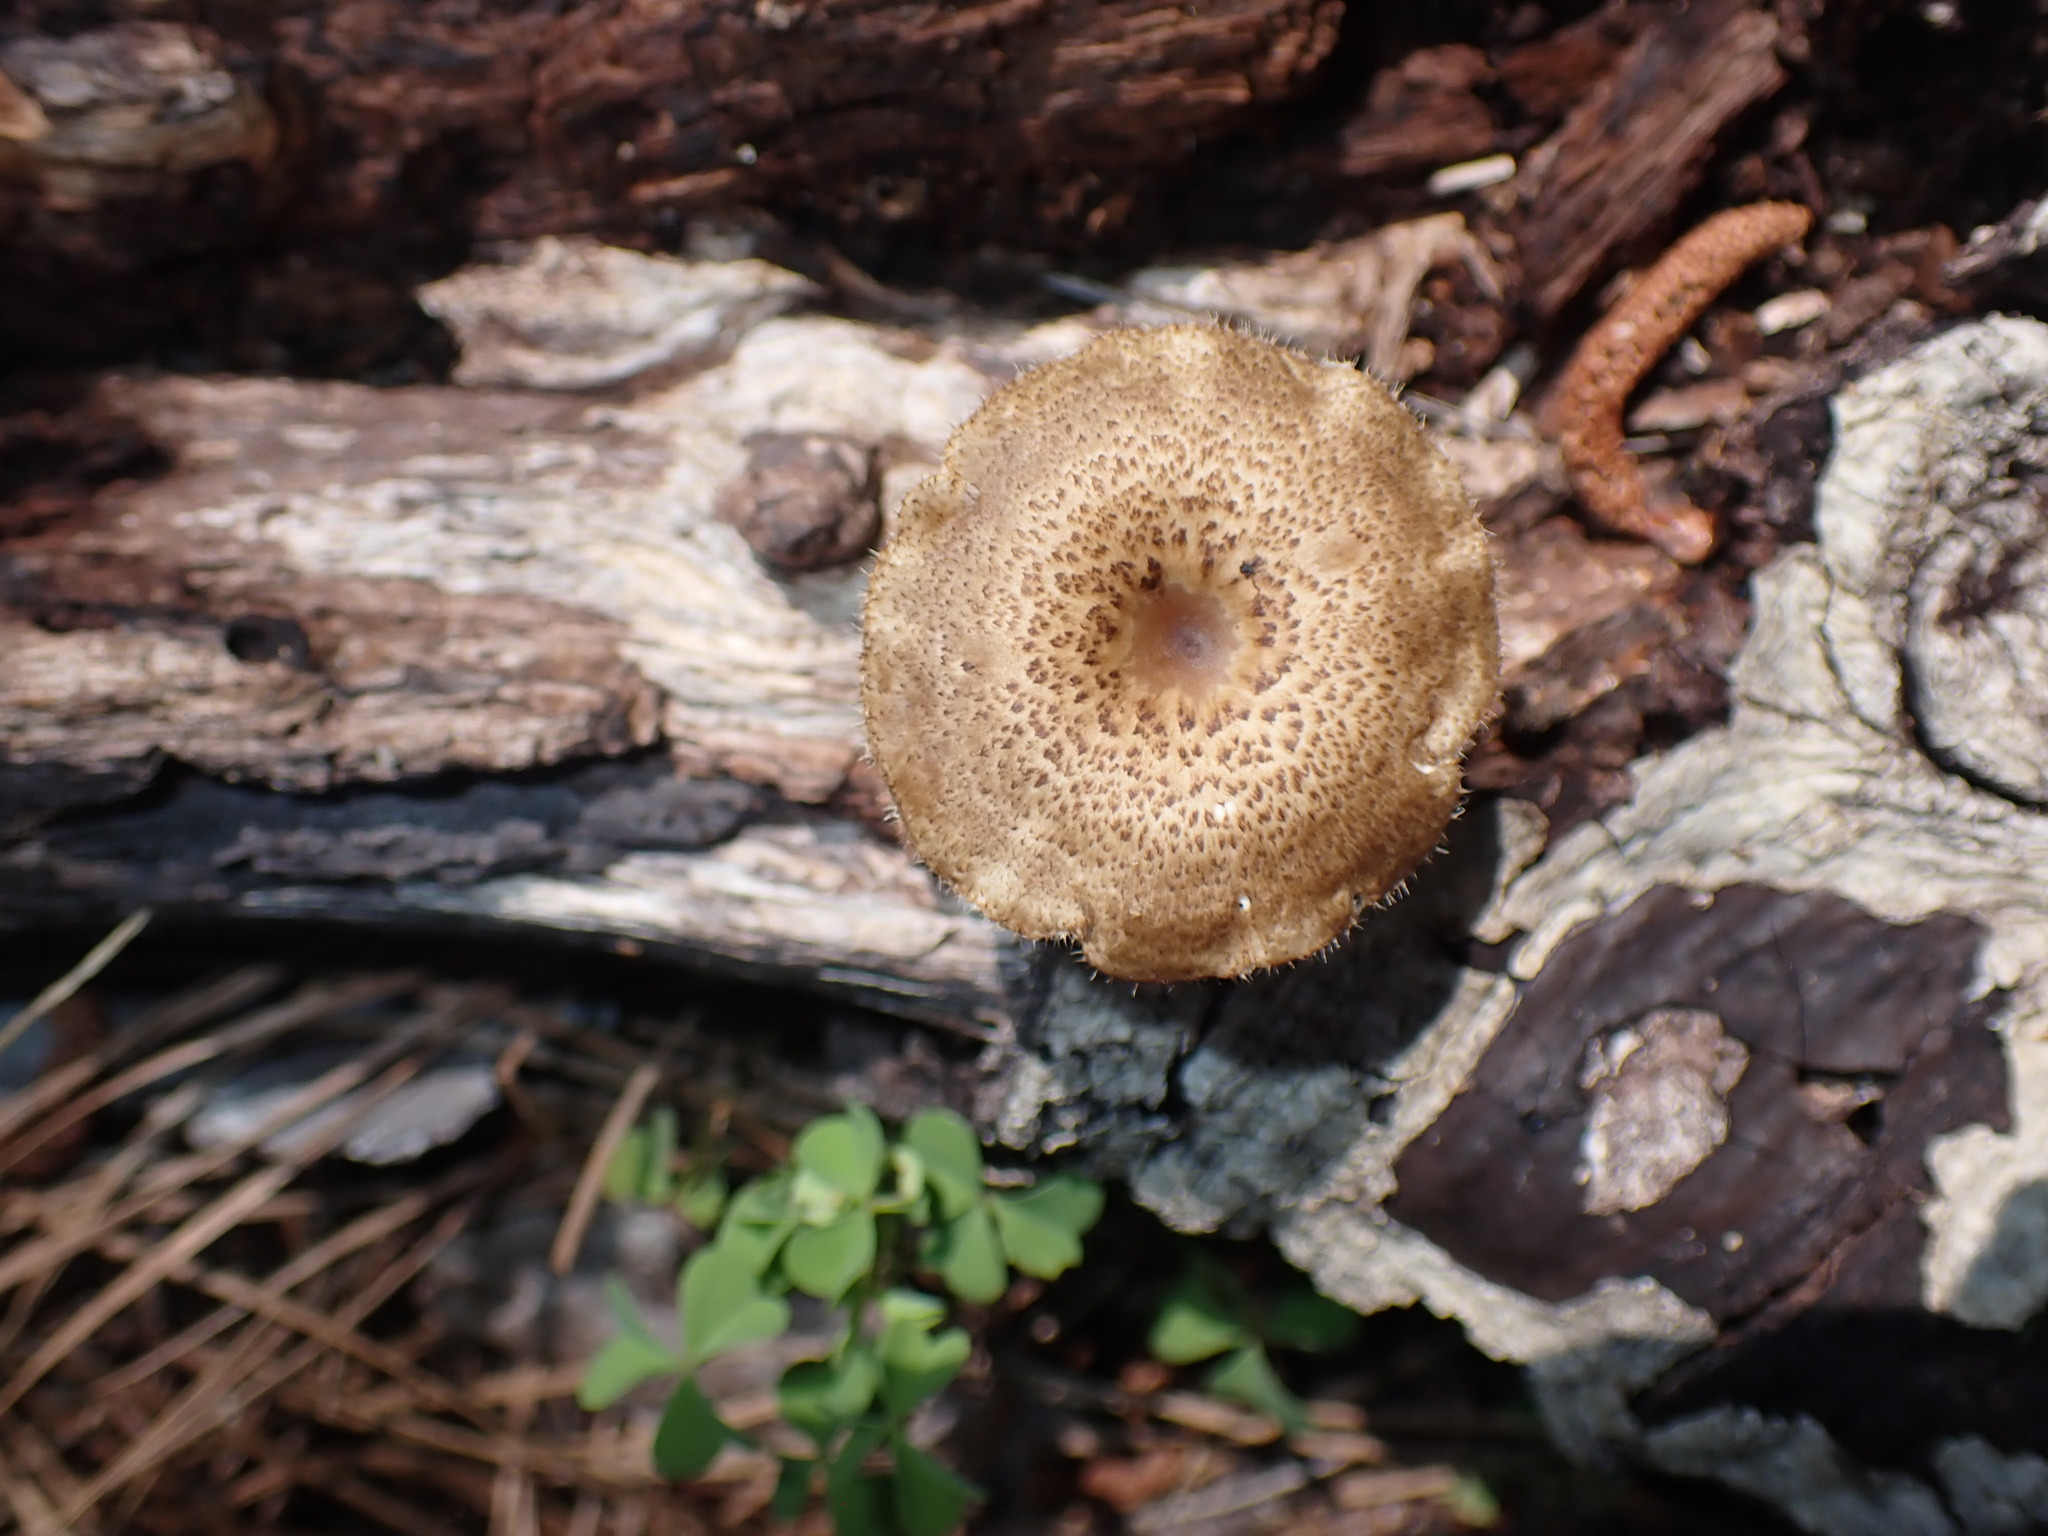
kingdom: Fungi
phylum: Basidiomycota
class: Agaricomycetes
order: Polyporales
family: Polyporaceae
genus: Lentinus
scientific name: Lentinus arcularius
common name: Spring polypore
